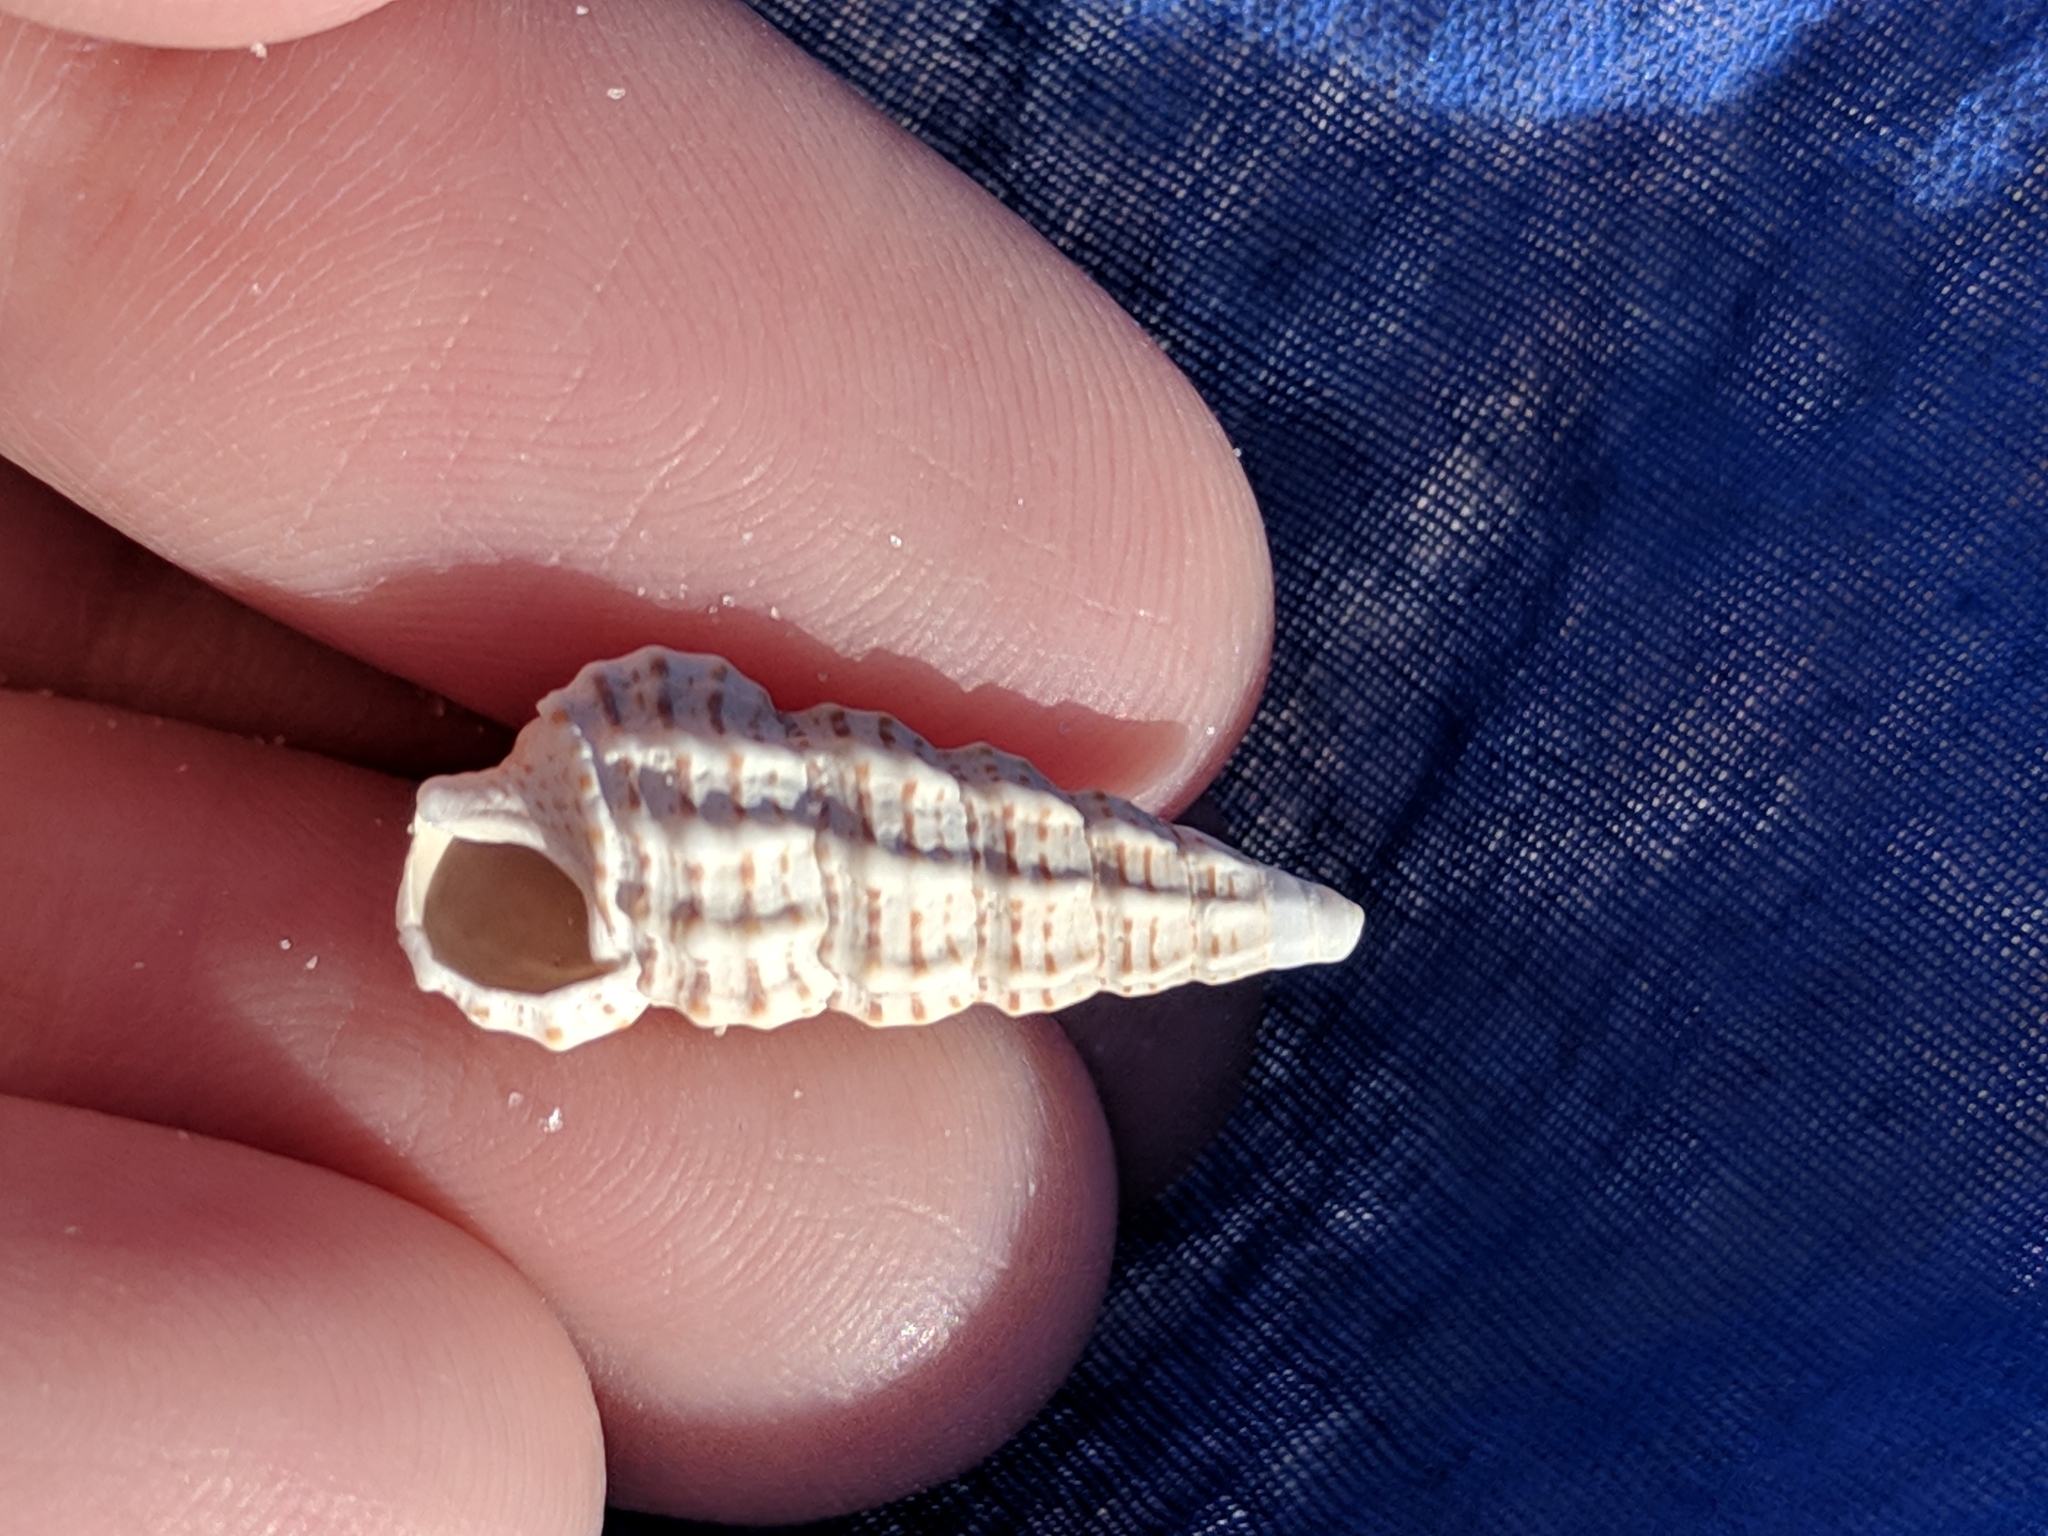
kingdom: Animalia
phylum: Mollusca
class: Gastropoda
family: Cerithiidae
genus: Cerithium
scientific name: Cerithium muscarum
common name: Fly-specked cerith
